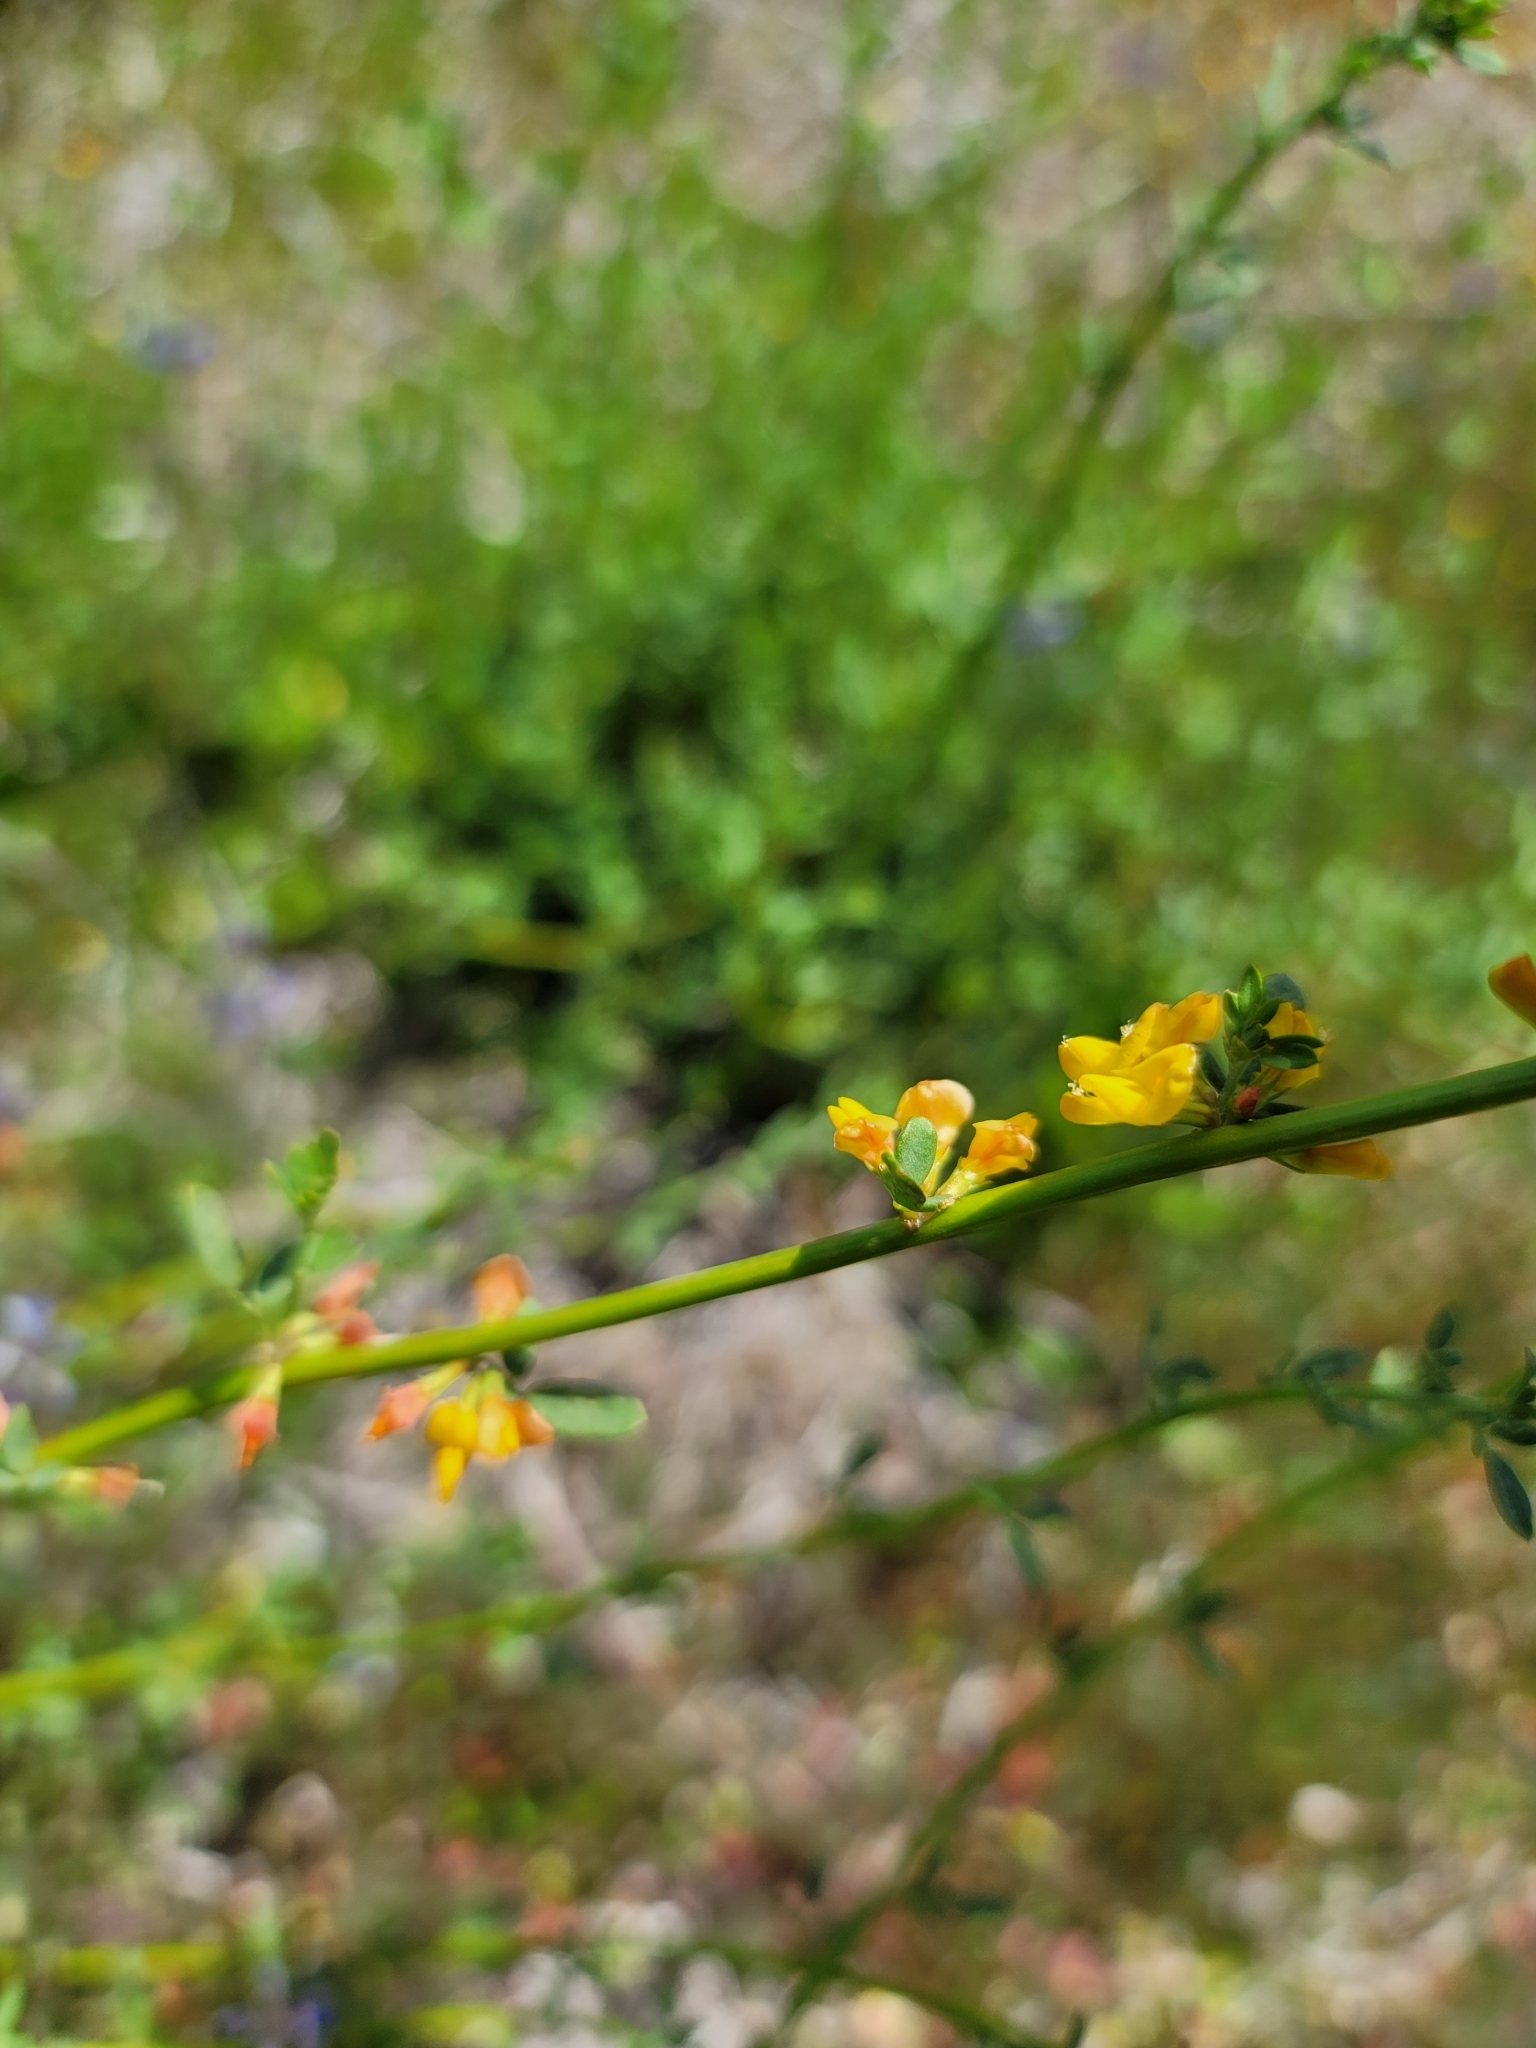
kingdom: Plantae
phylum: Tracheophyta
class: Magnoliopsida
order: Fabales
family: Fabaceae
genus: Acmispon
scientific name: Acmispon glaber
